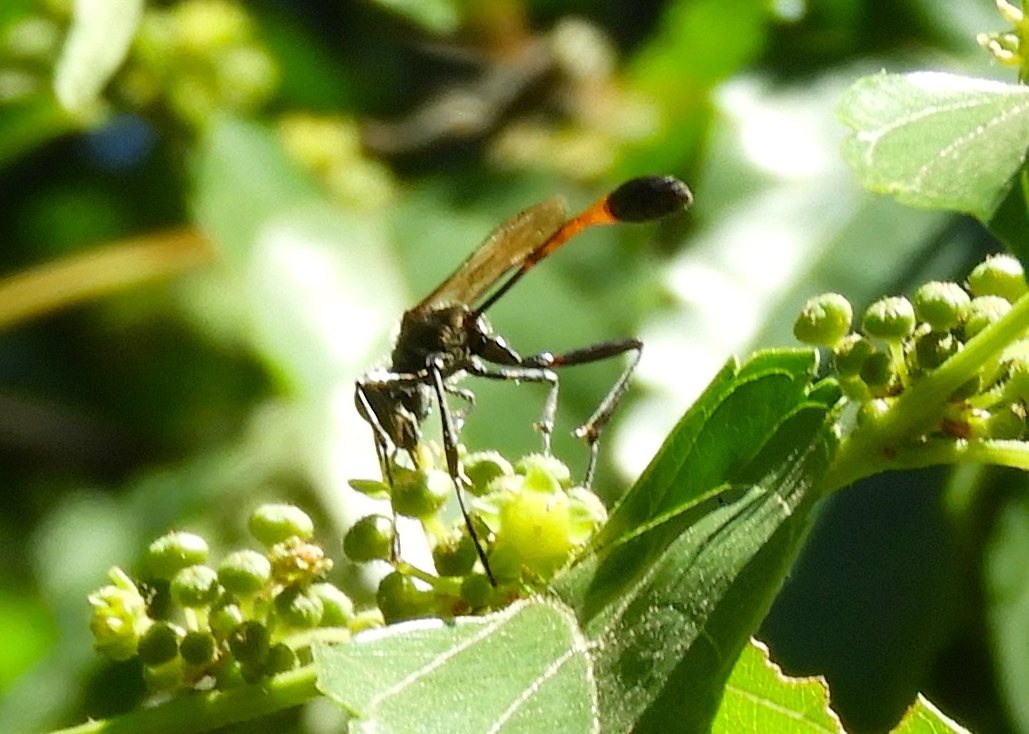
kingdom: Animalia
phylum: Arthropoda
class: Insecta
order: Hymenoptera
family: Sphecidae
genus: Ammophila
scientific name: Ammophila
